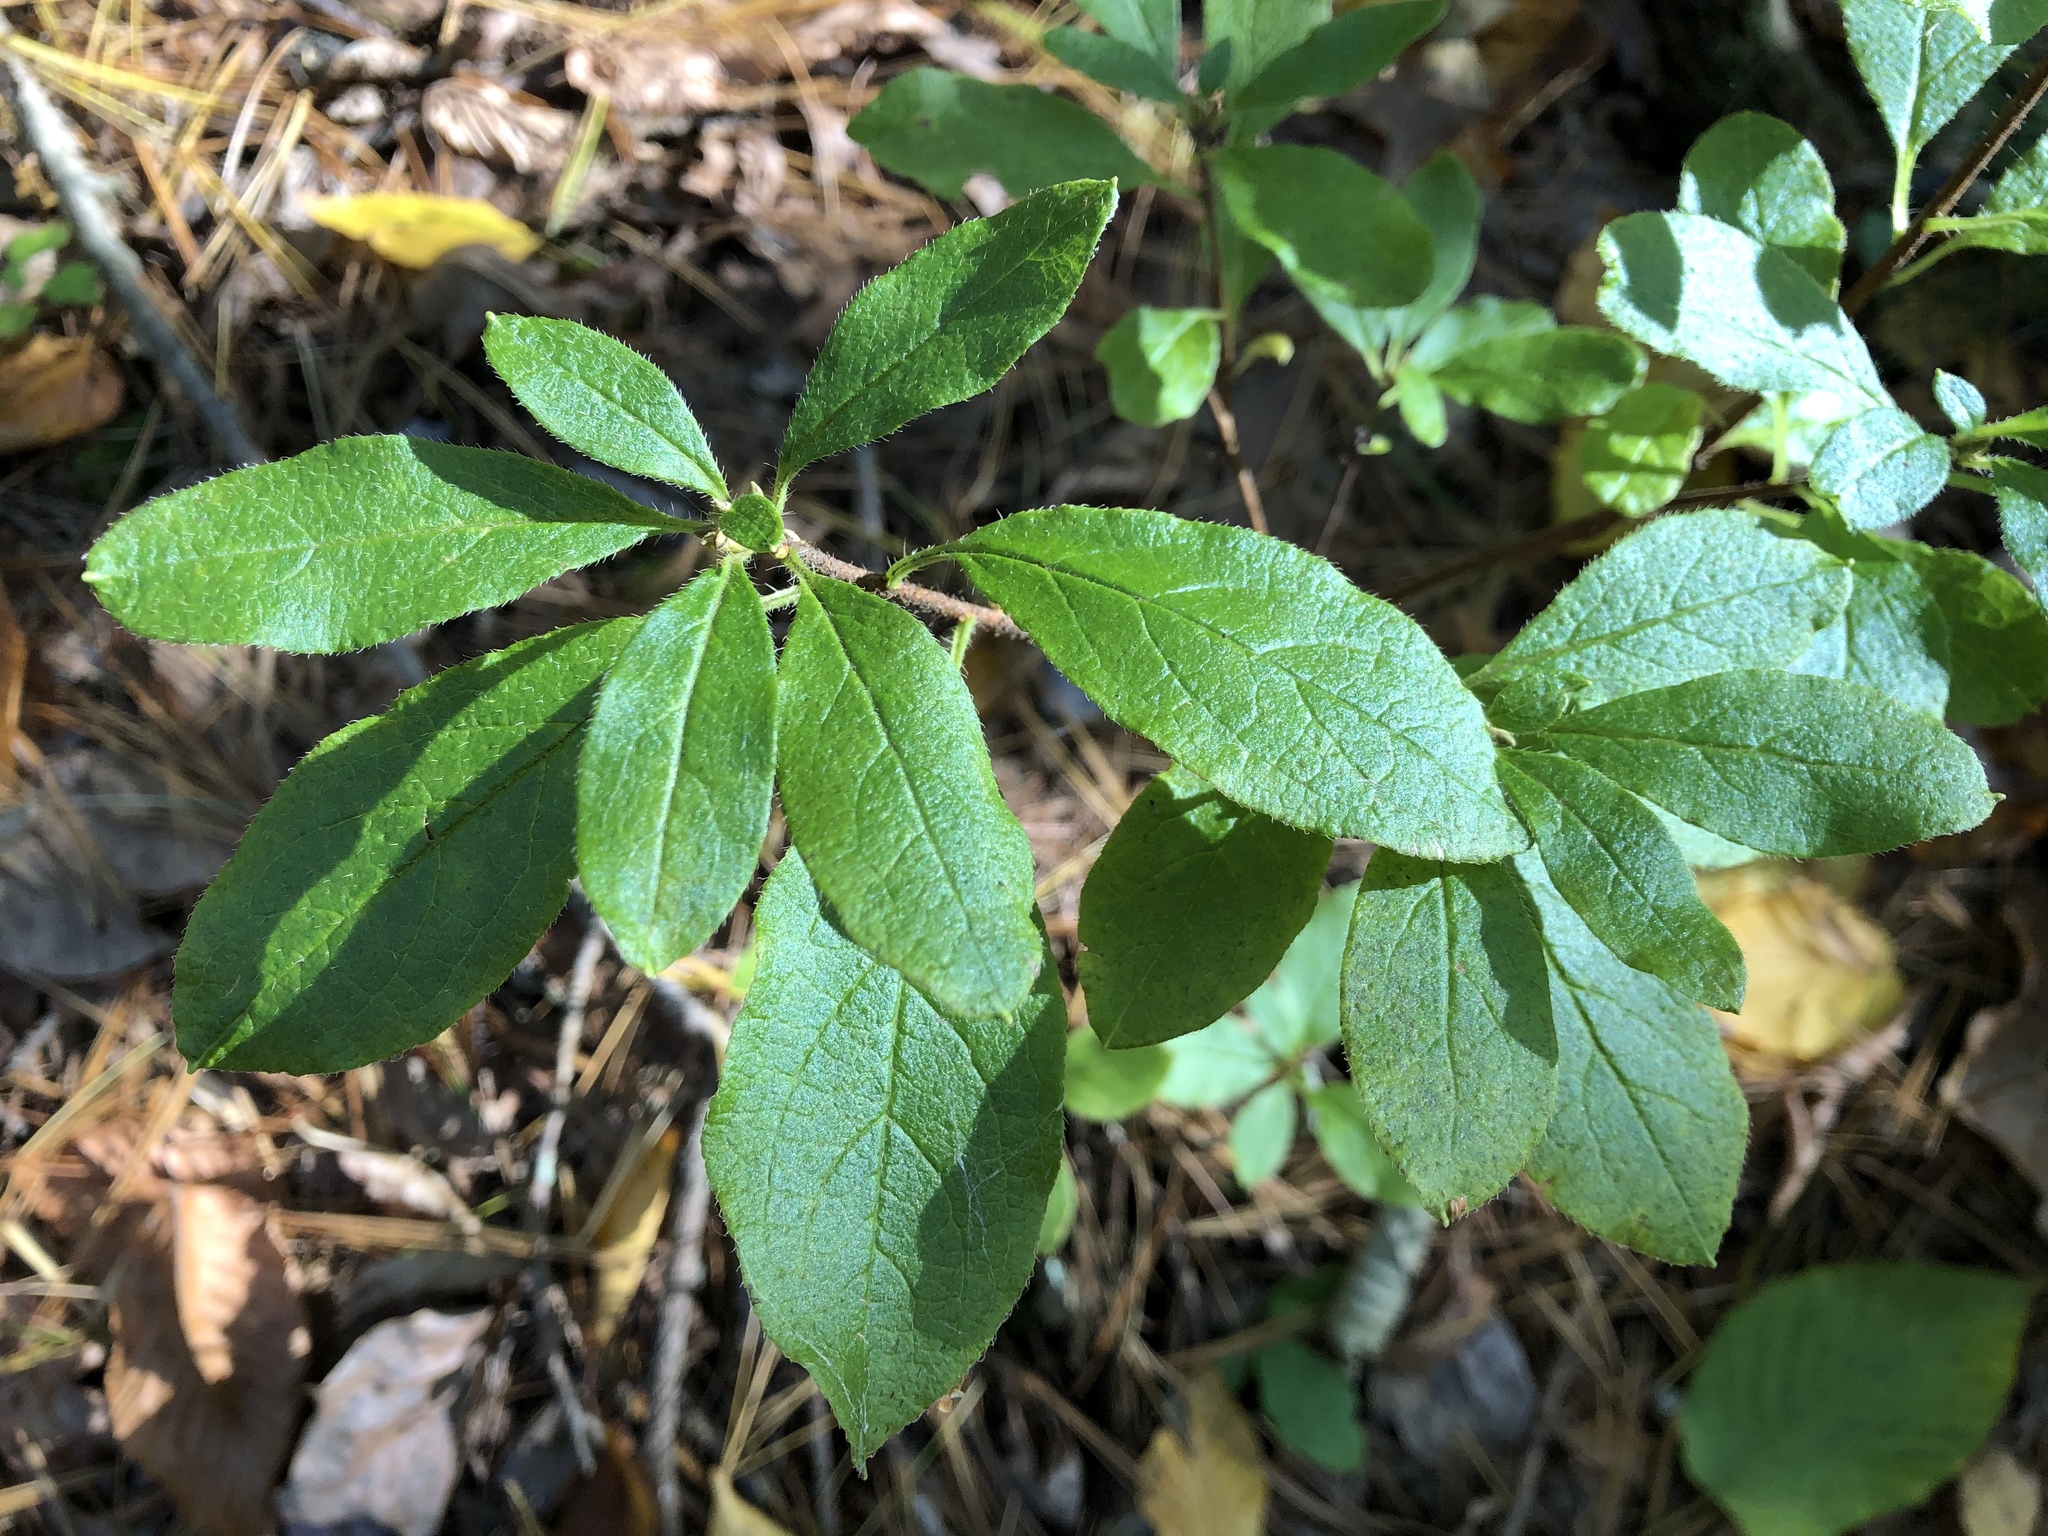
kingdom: Plantae
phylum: Tracheophyta
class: Magnoliopsida
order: Ericales
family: Ericaceae
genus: Rhododendron
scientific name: Rhododendron pilosum
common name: Hairy minniebush
